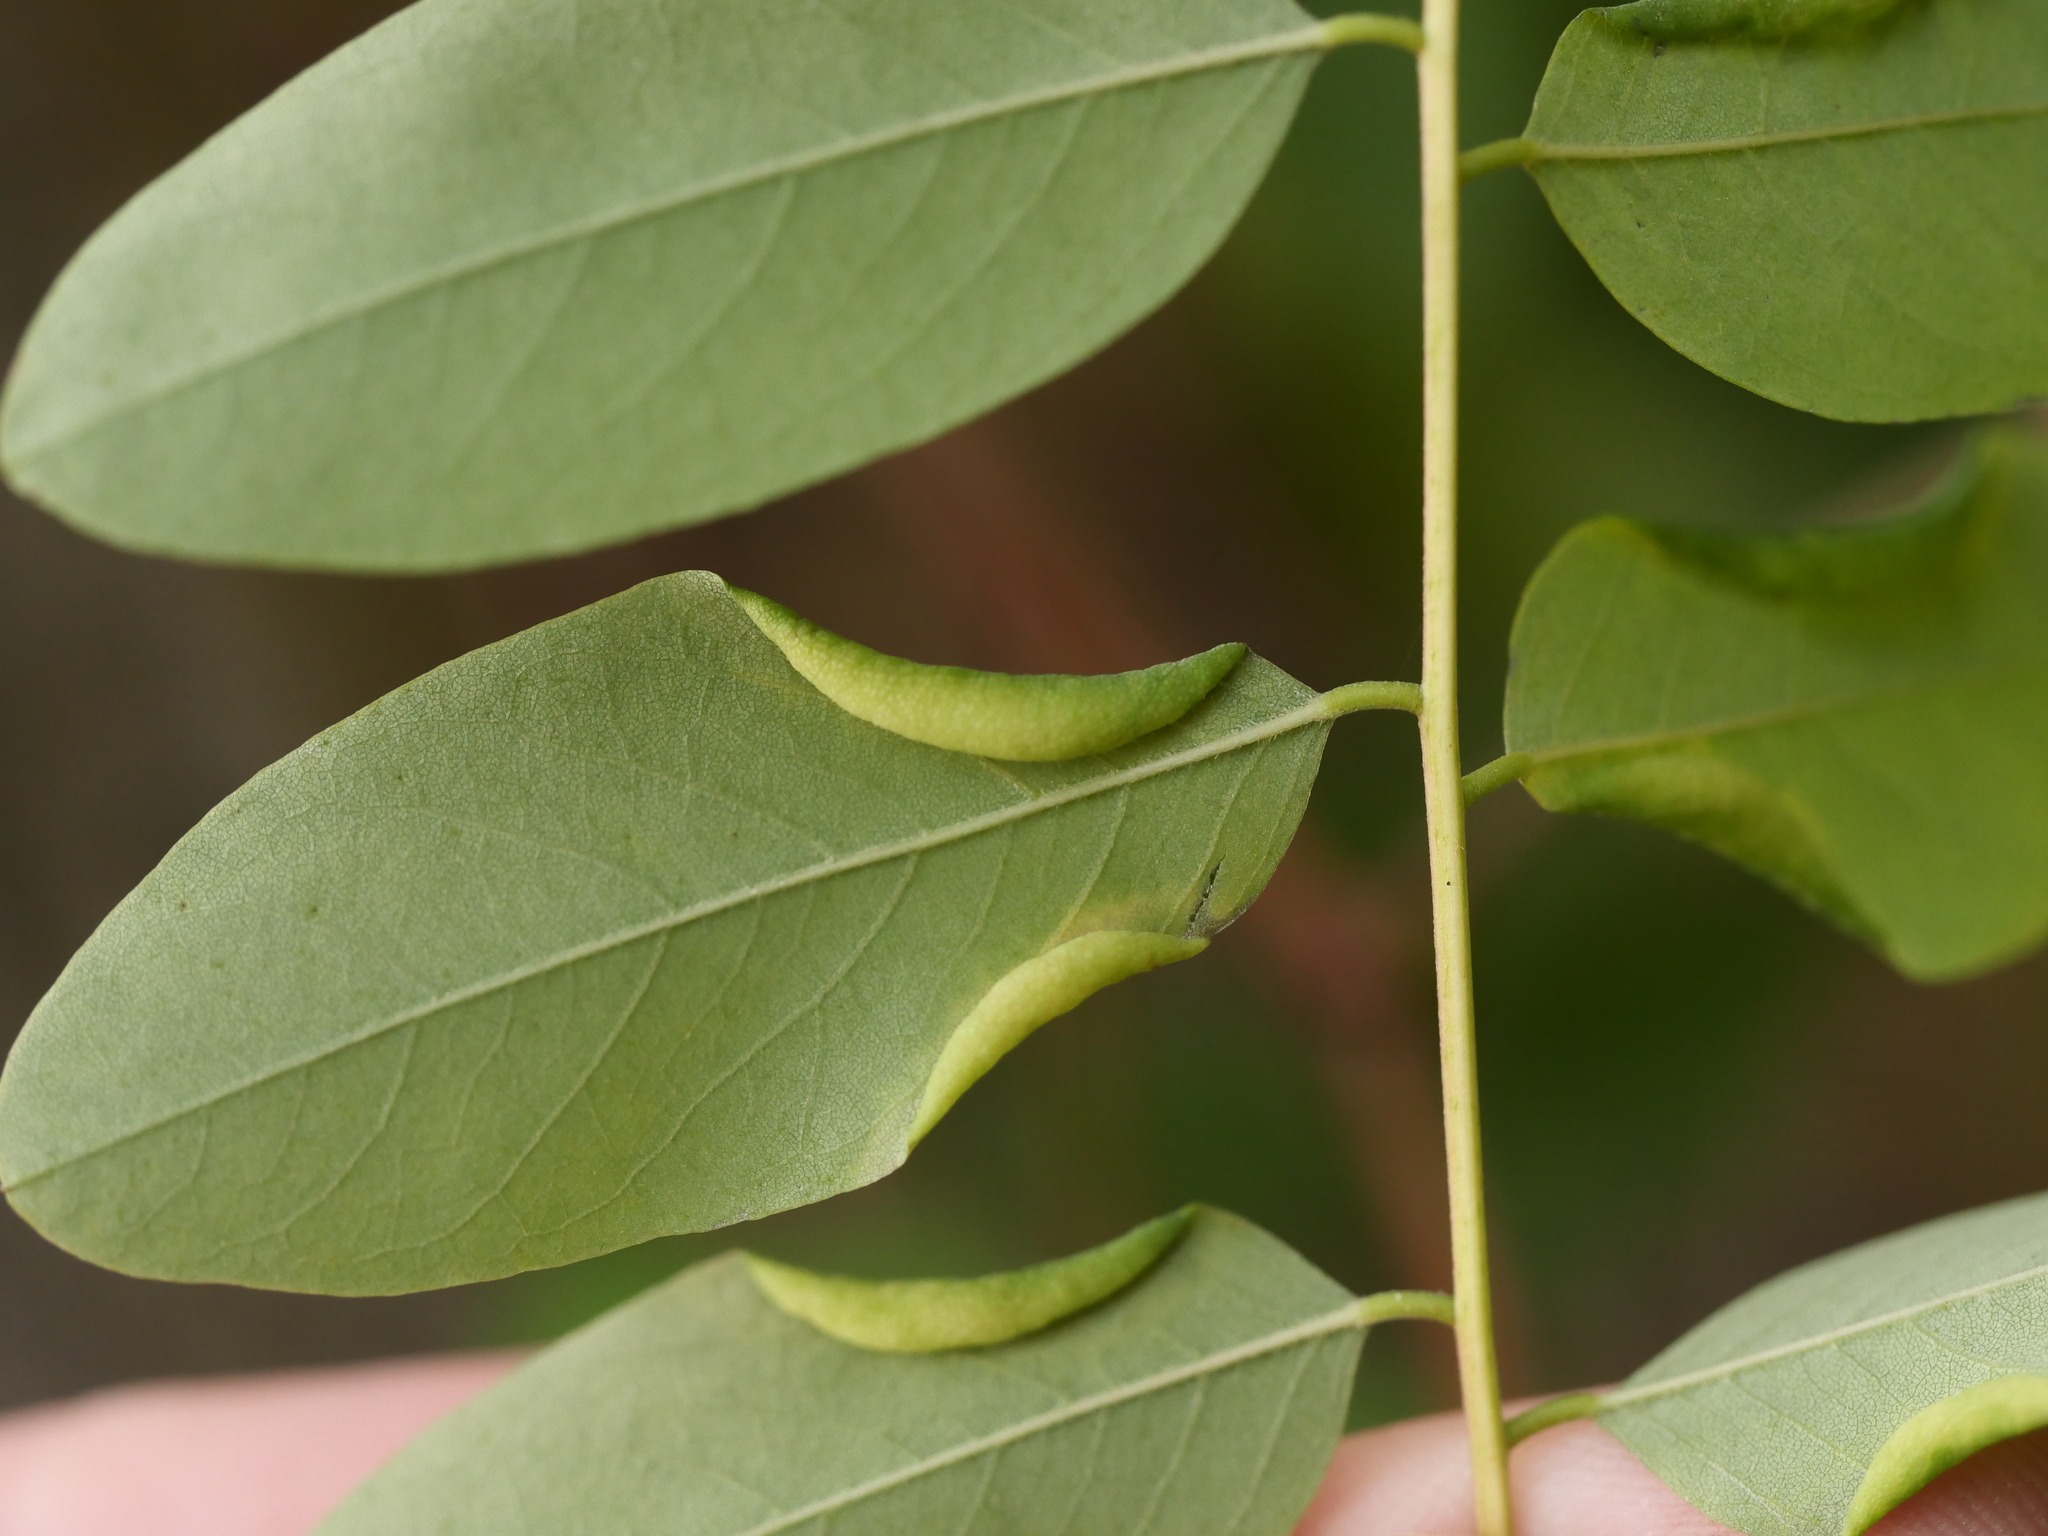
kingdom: Animalia
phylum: Arthropoda
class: Insecta
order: Diptera
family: Cecidomyiidae
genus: Obolodiplosis
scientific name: Obolodiplosis robiniae
